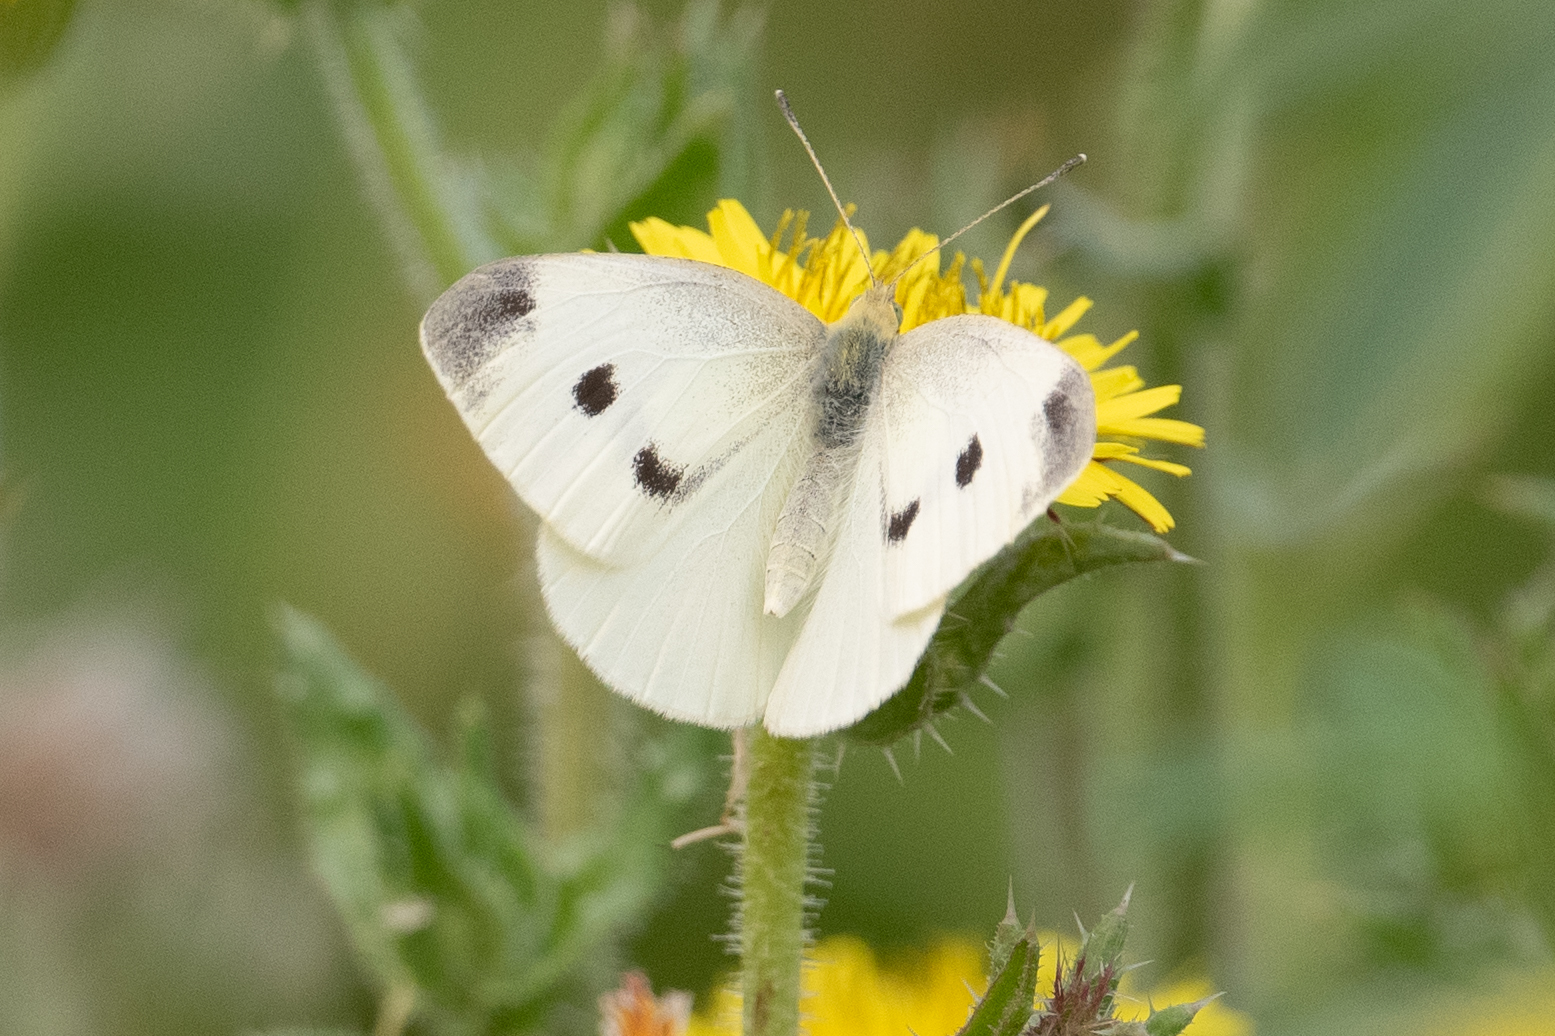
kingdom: Animalia
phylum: Arthropoda
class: Insecta
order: Lepidoptera
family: Pieridae
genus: Pieris
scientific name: Pieris rapae
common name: Small white
